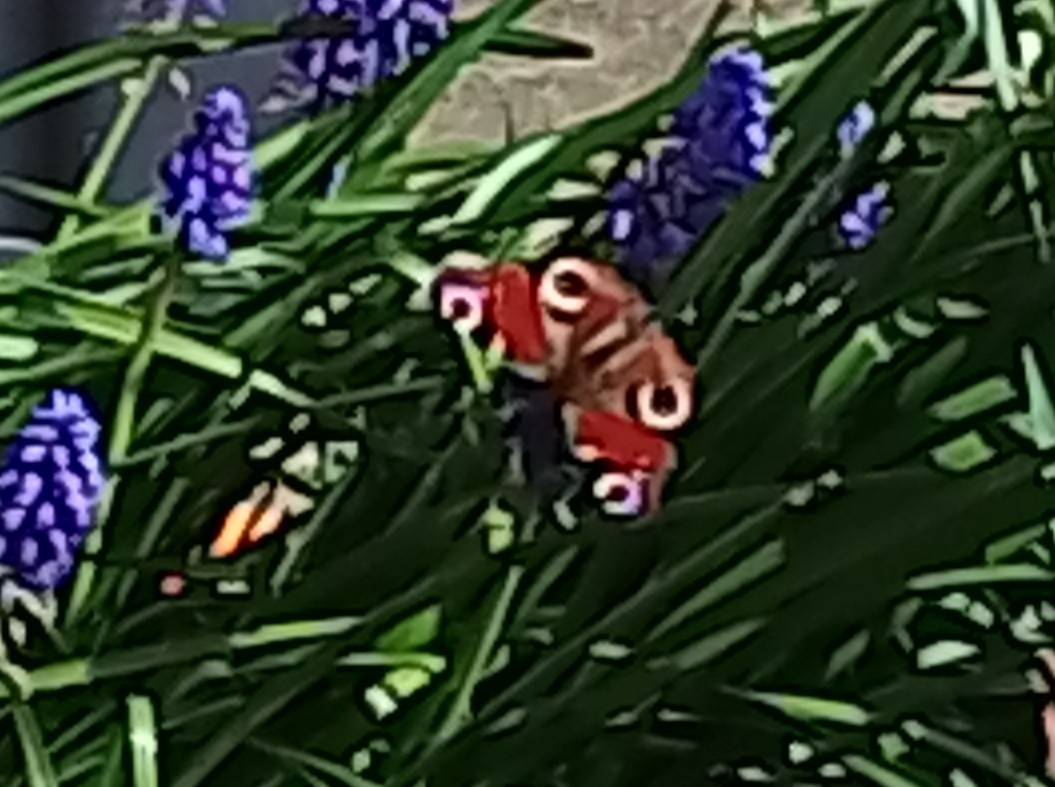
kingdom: Animalia
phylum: Arthropoda
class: Insecta
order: Lepidoptera
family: Nymphalidae
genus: Aglais
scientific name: Aglais io
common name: Peacock
